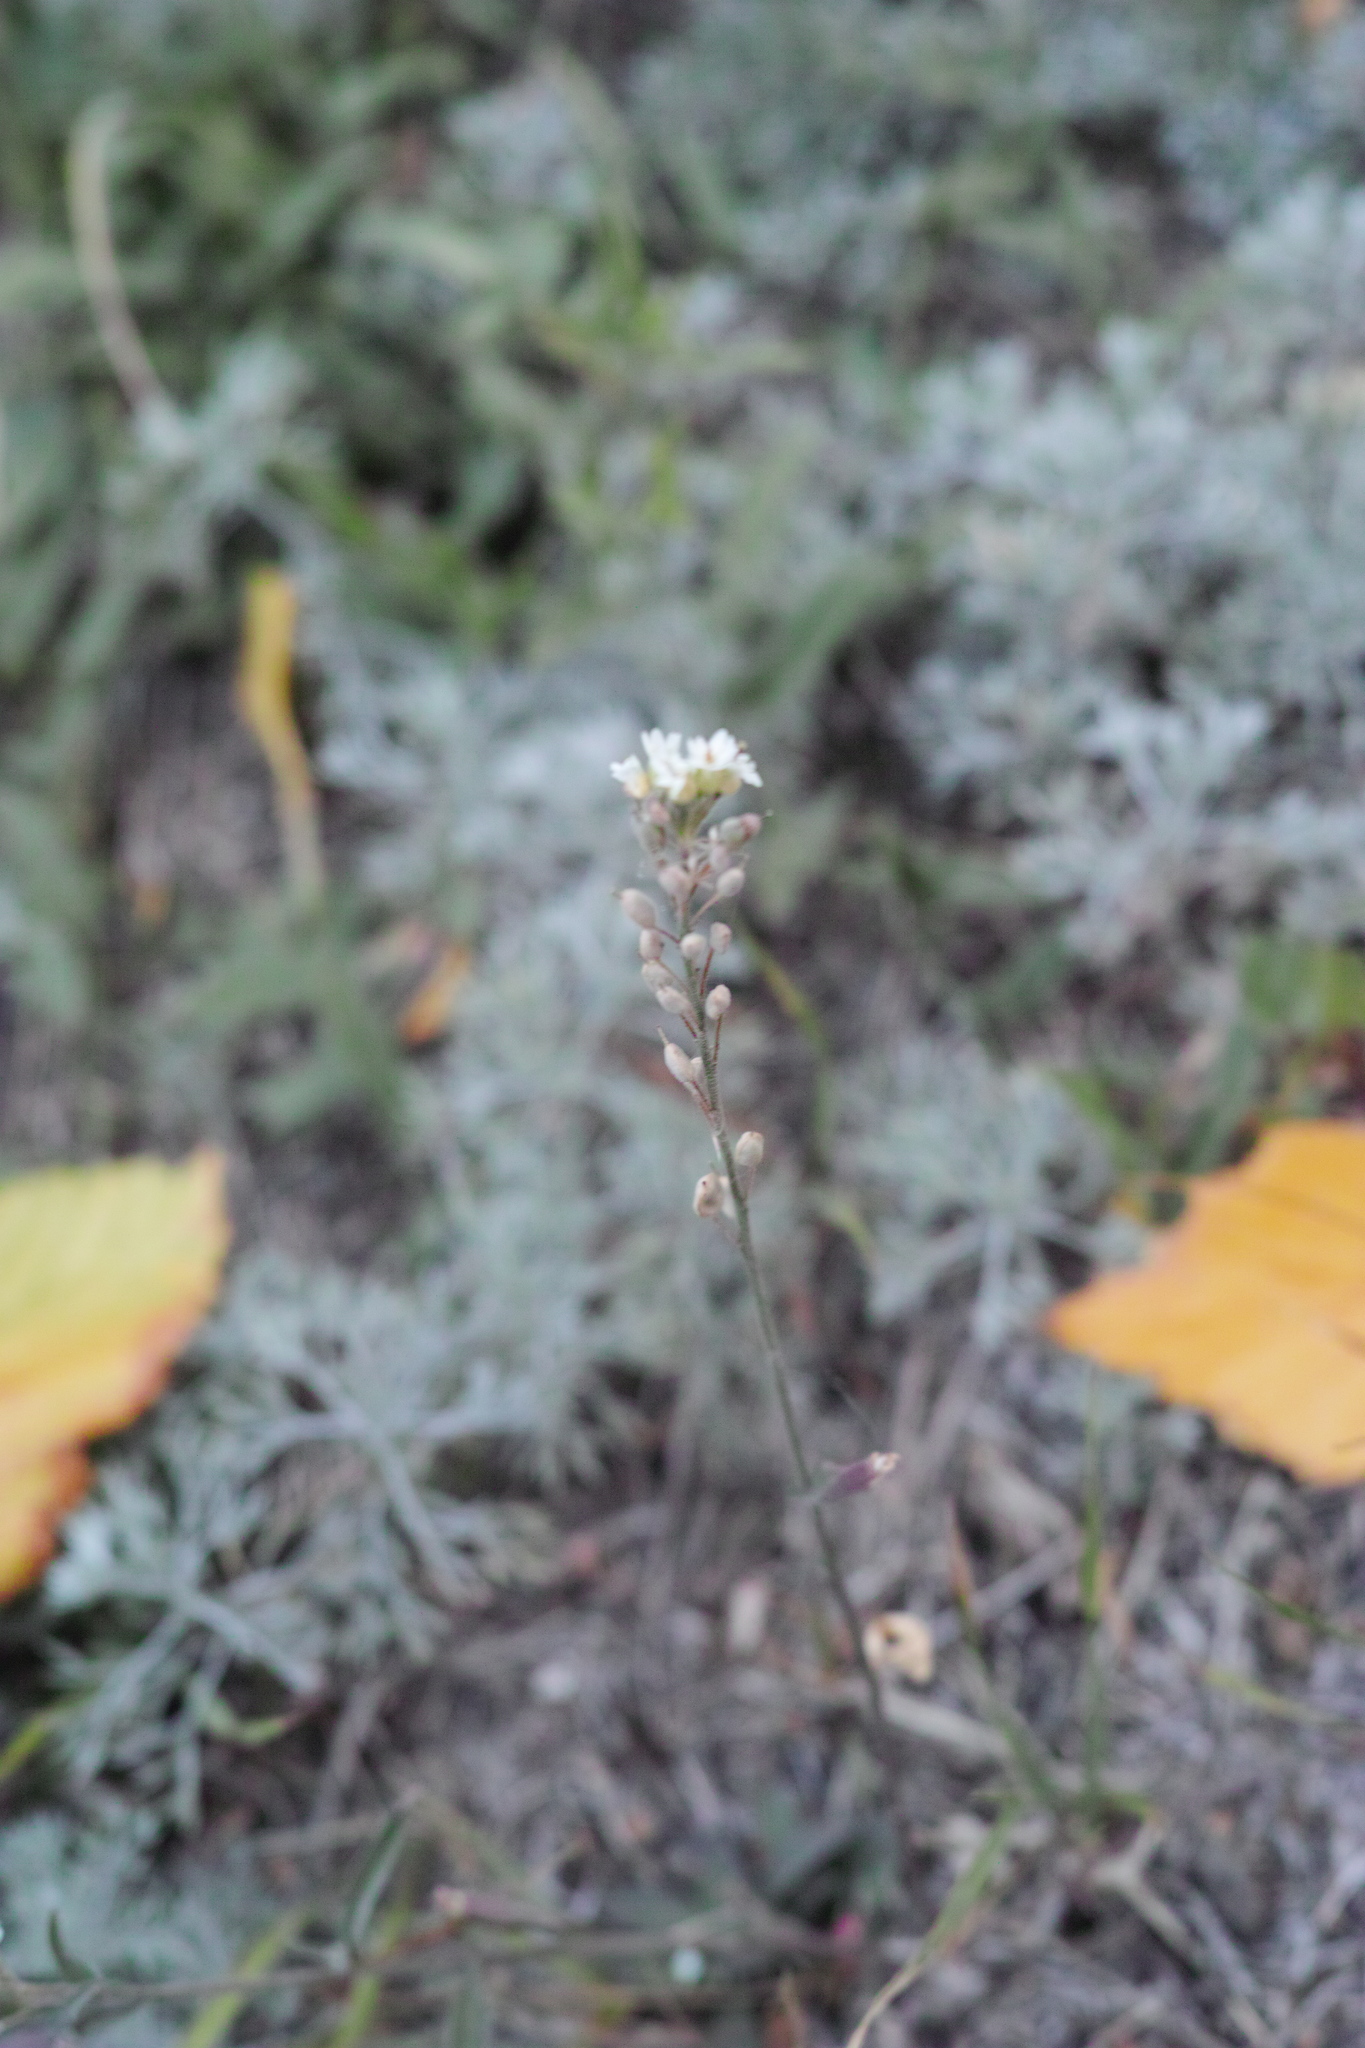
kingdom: Plantae
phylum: Tracheophyta
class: Magnoliopsida
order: Brassicales
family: Brassicaceae
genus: Berteroa
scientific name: Berteroa incana
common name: Hoary alison
